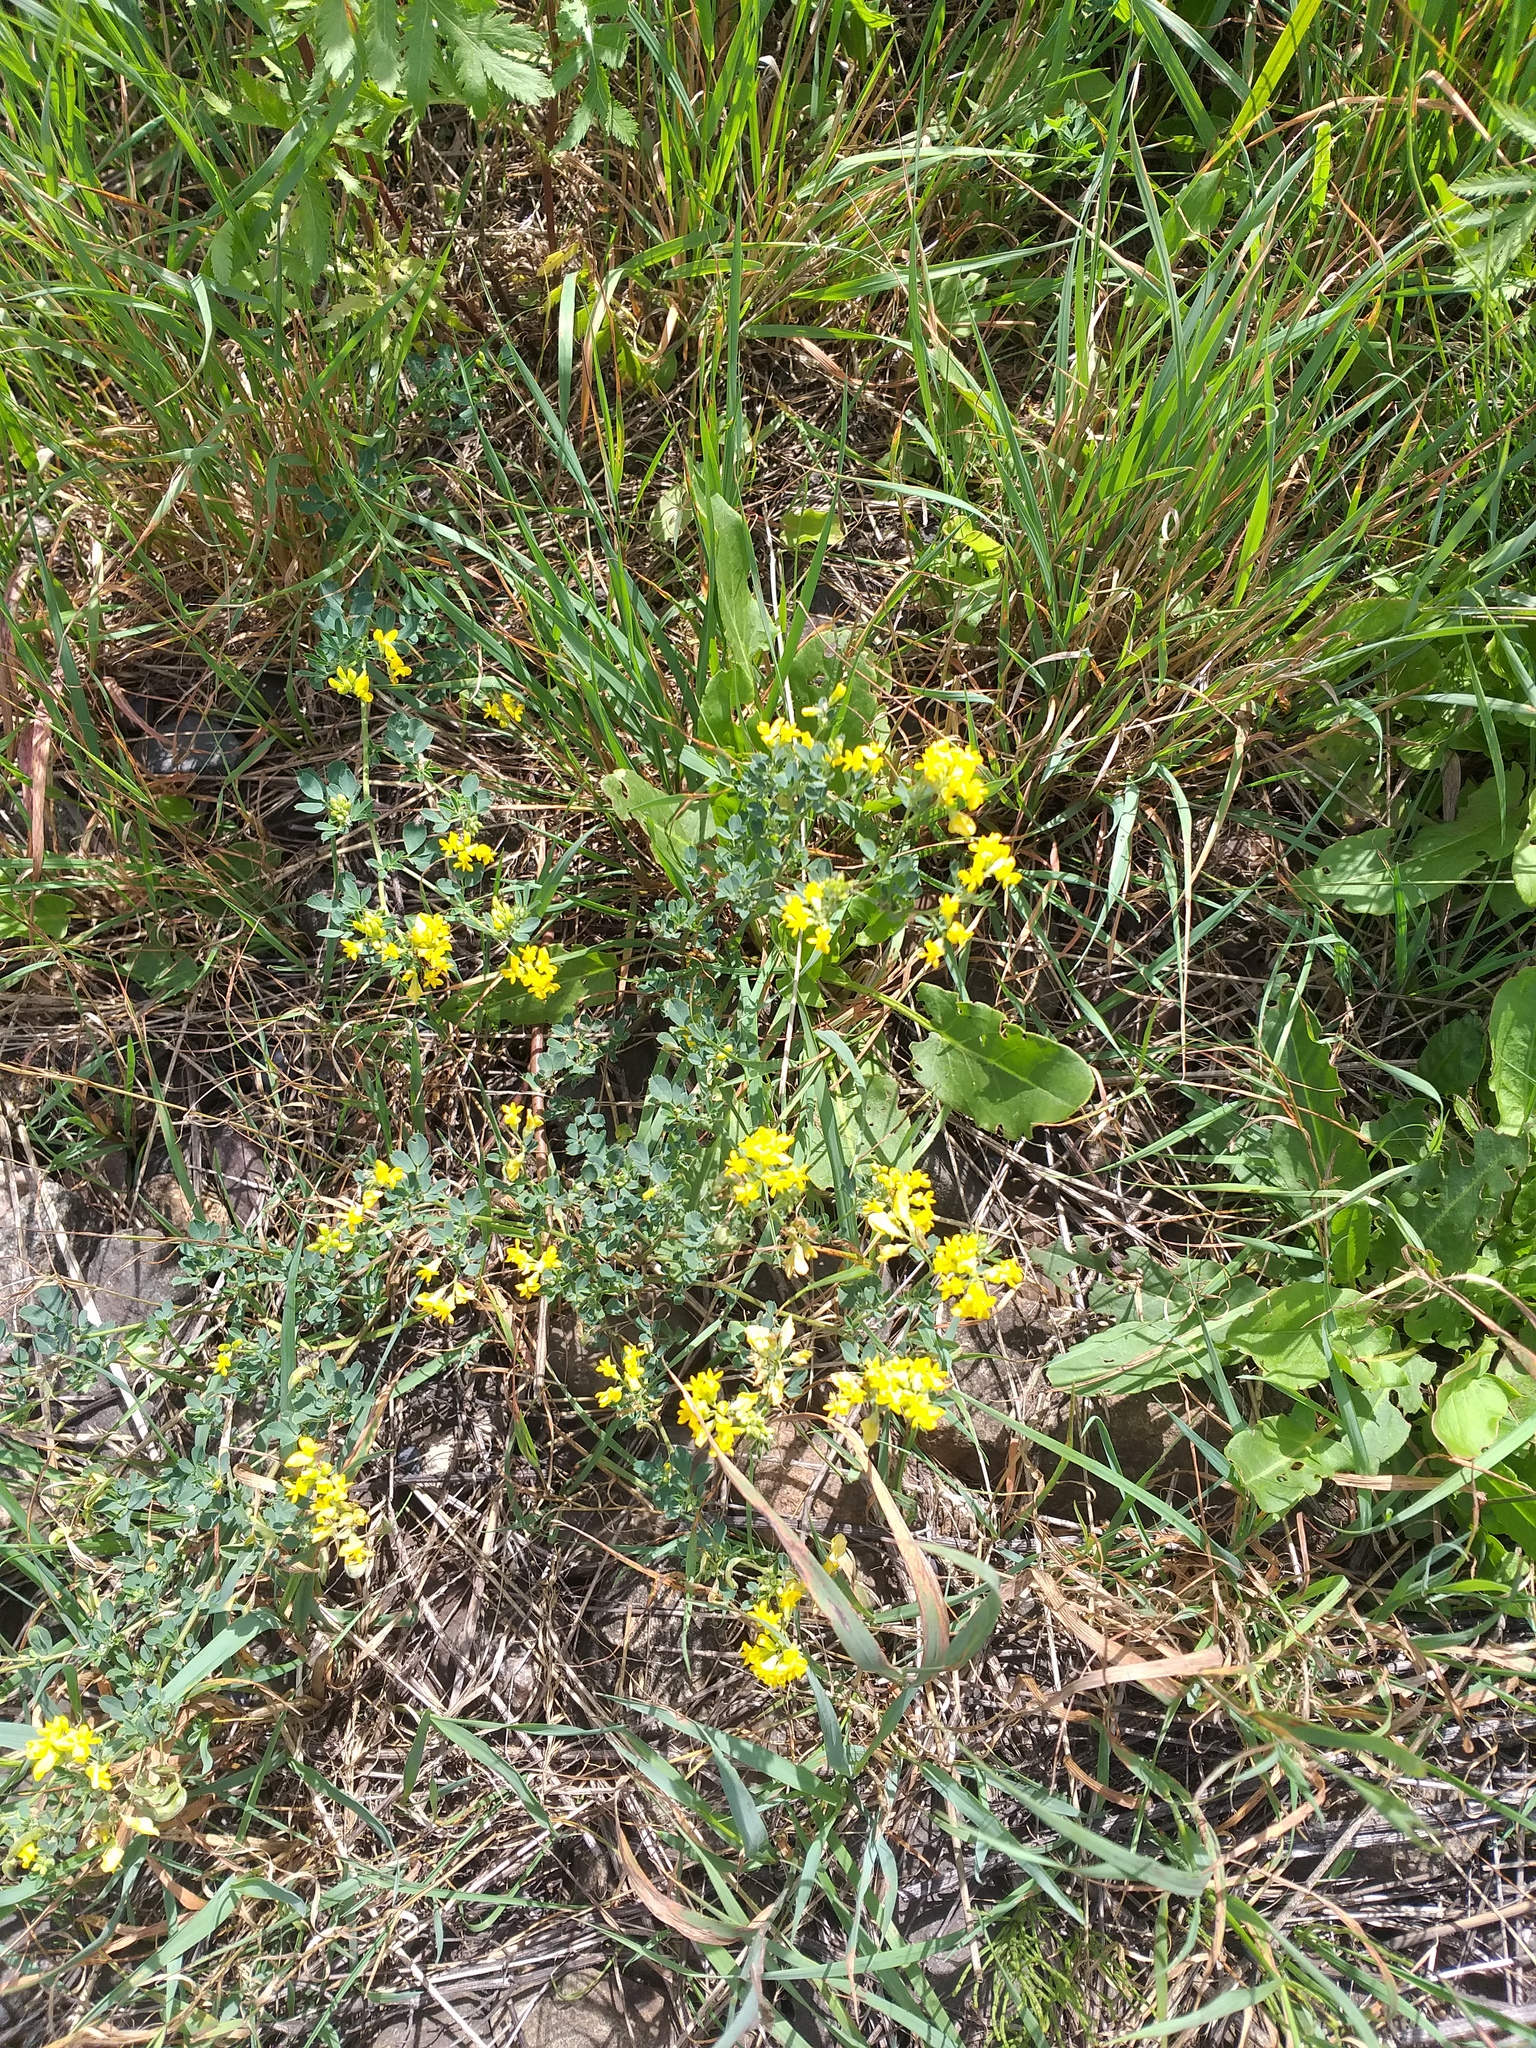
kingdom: Plantae
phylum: Tracheophyta
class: Magnoliopsida
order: Fabales
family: Fabaceae
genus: Medicago
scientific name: Medicago falcata
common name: Sickle medick
